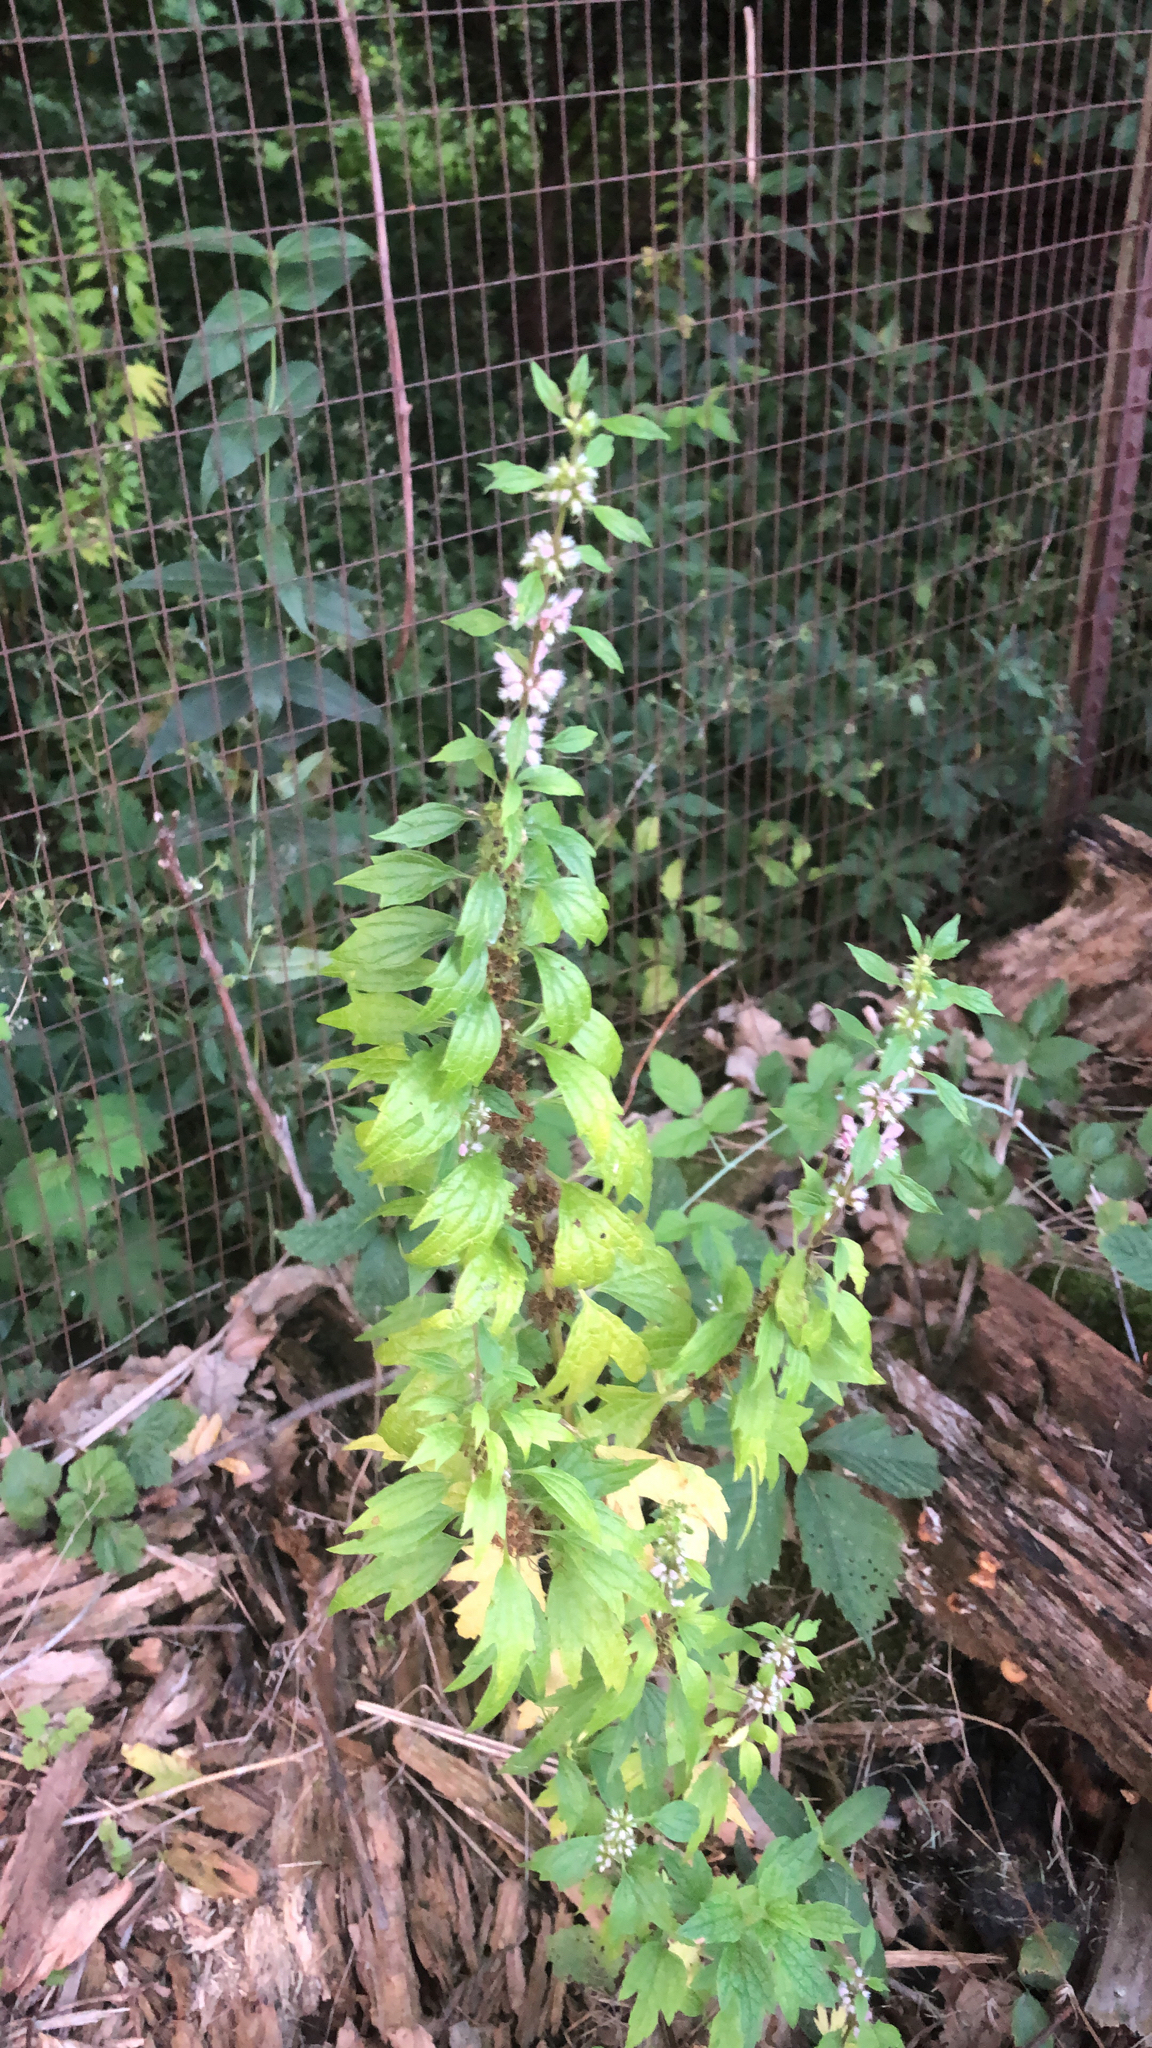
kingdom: Plantae
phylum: Tracheophyta
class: Magnoliopsida
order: Lamiales
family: Lamiaceae
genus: Leonurus
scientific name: Leonurus cardiaca
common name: Motherwort
